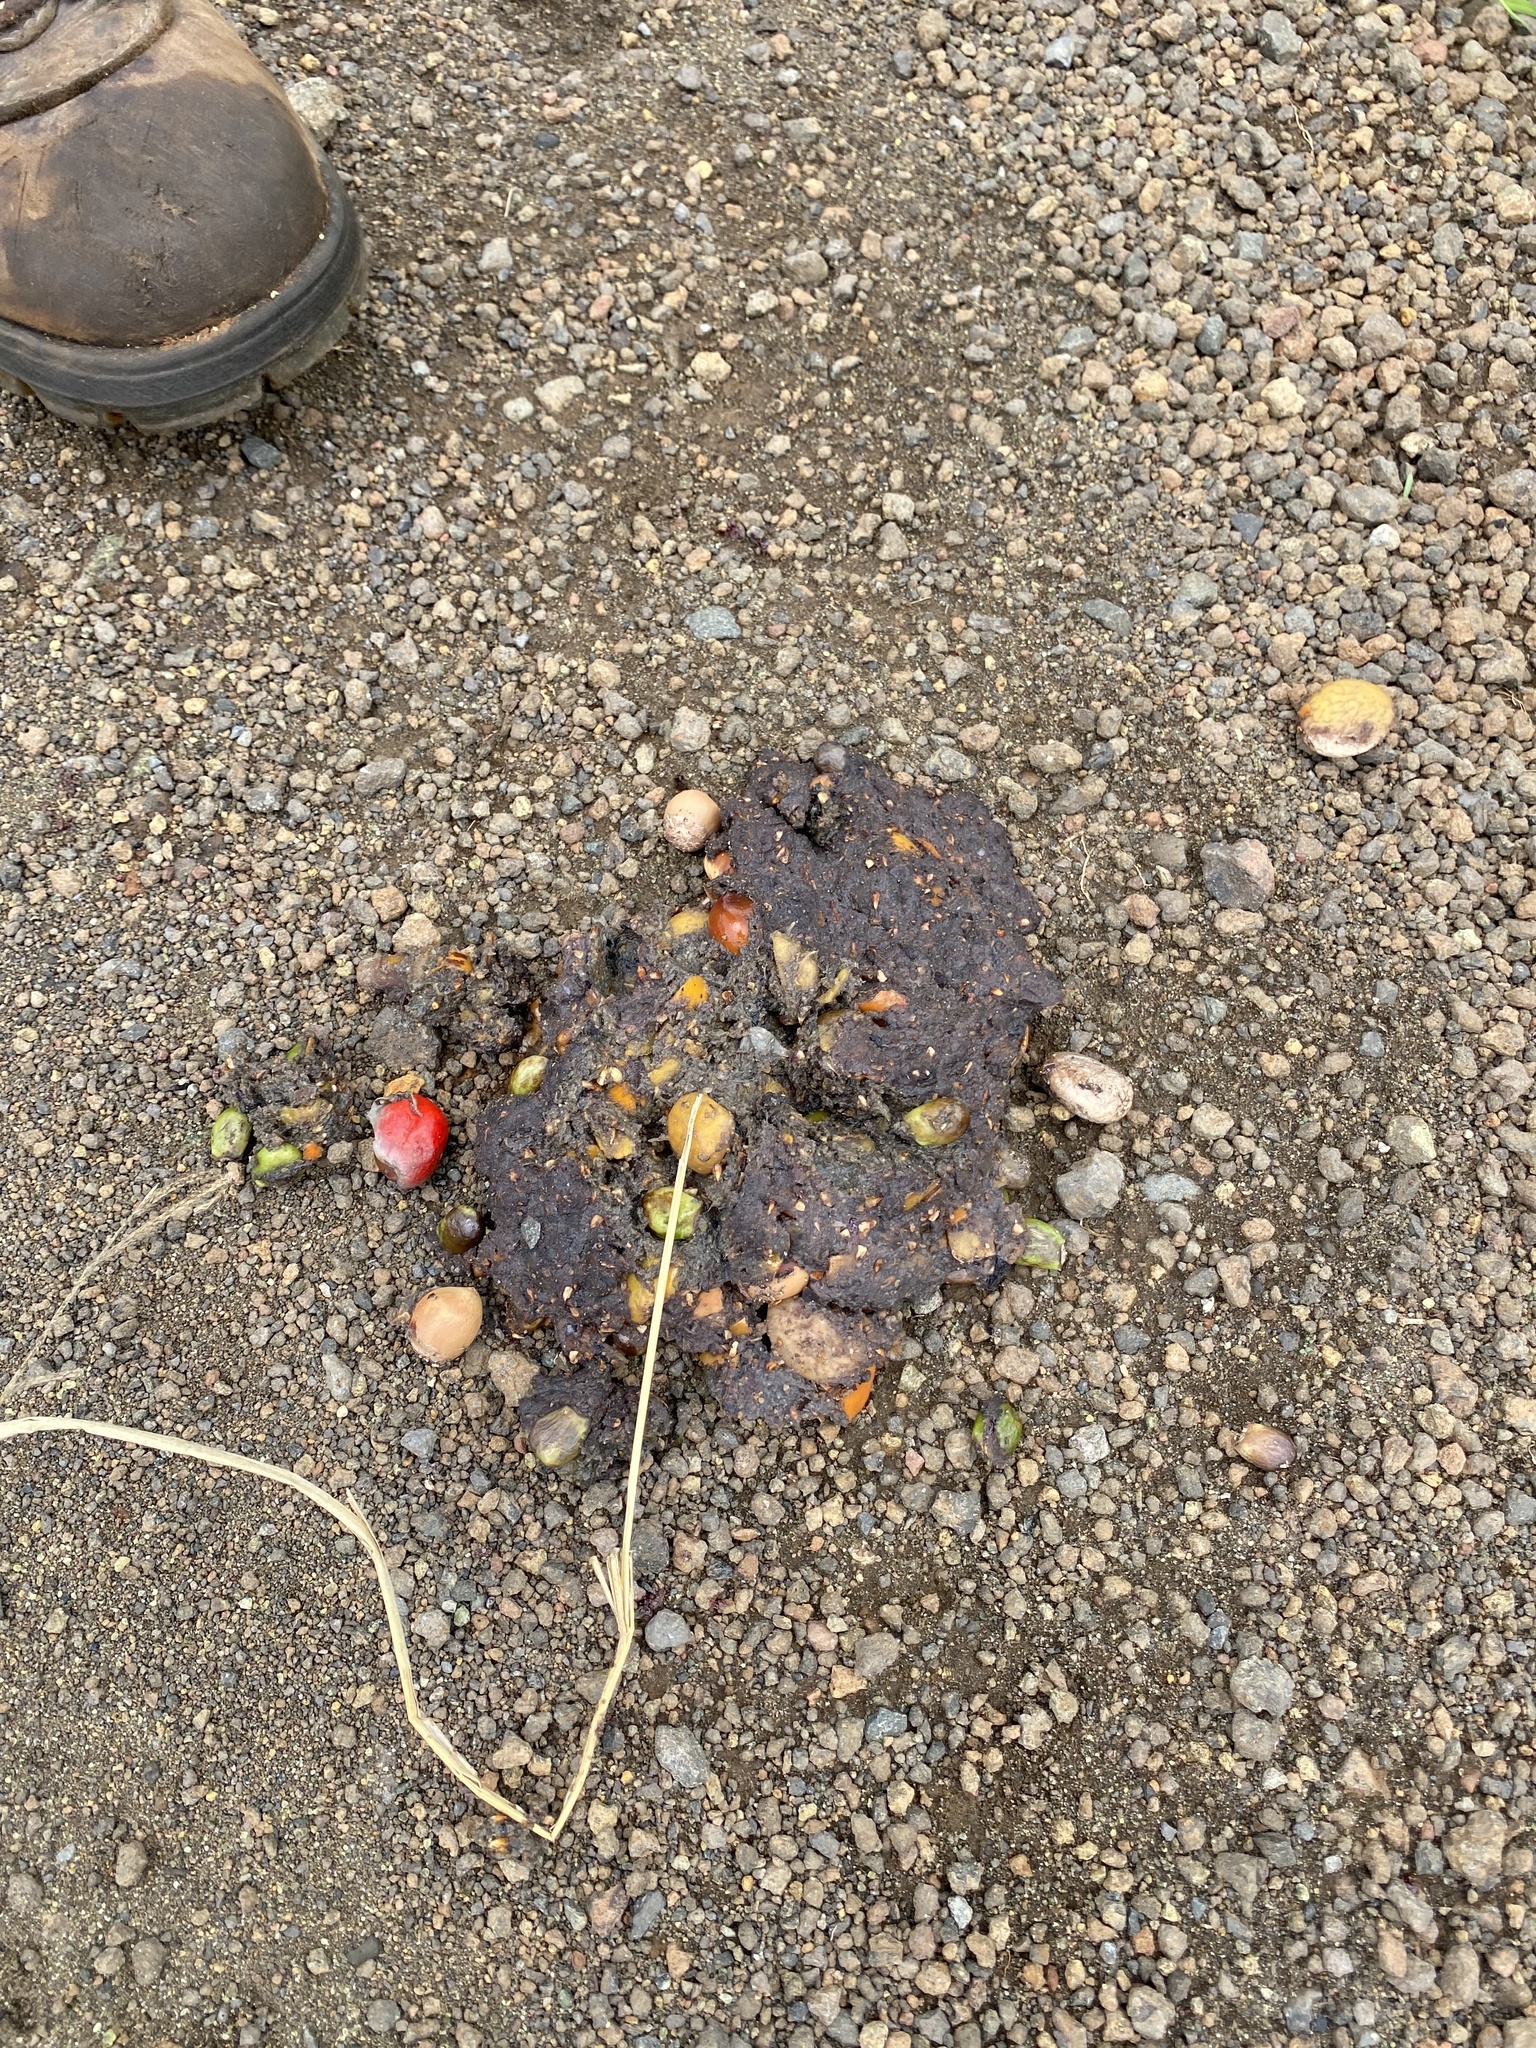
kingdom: Animalia
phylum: Chordata
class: Aves
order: Casuariiformes
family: Casuariidae
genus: Casuarius
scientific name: Casuarius casuarius
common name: Southern cassowary
